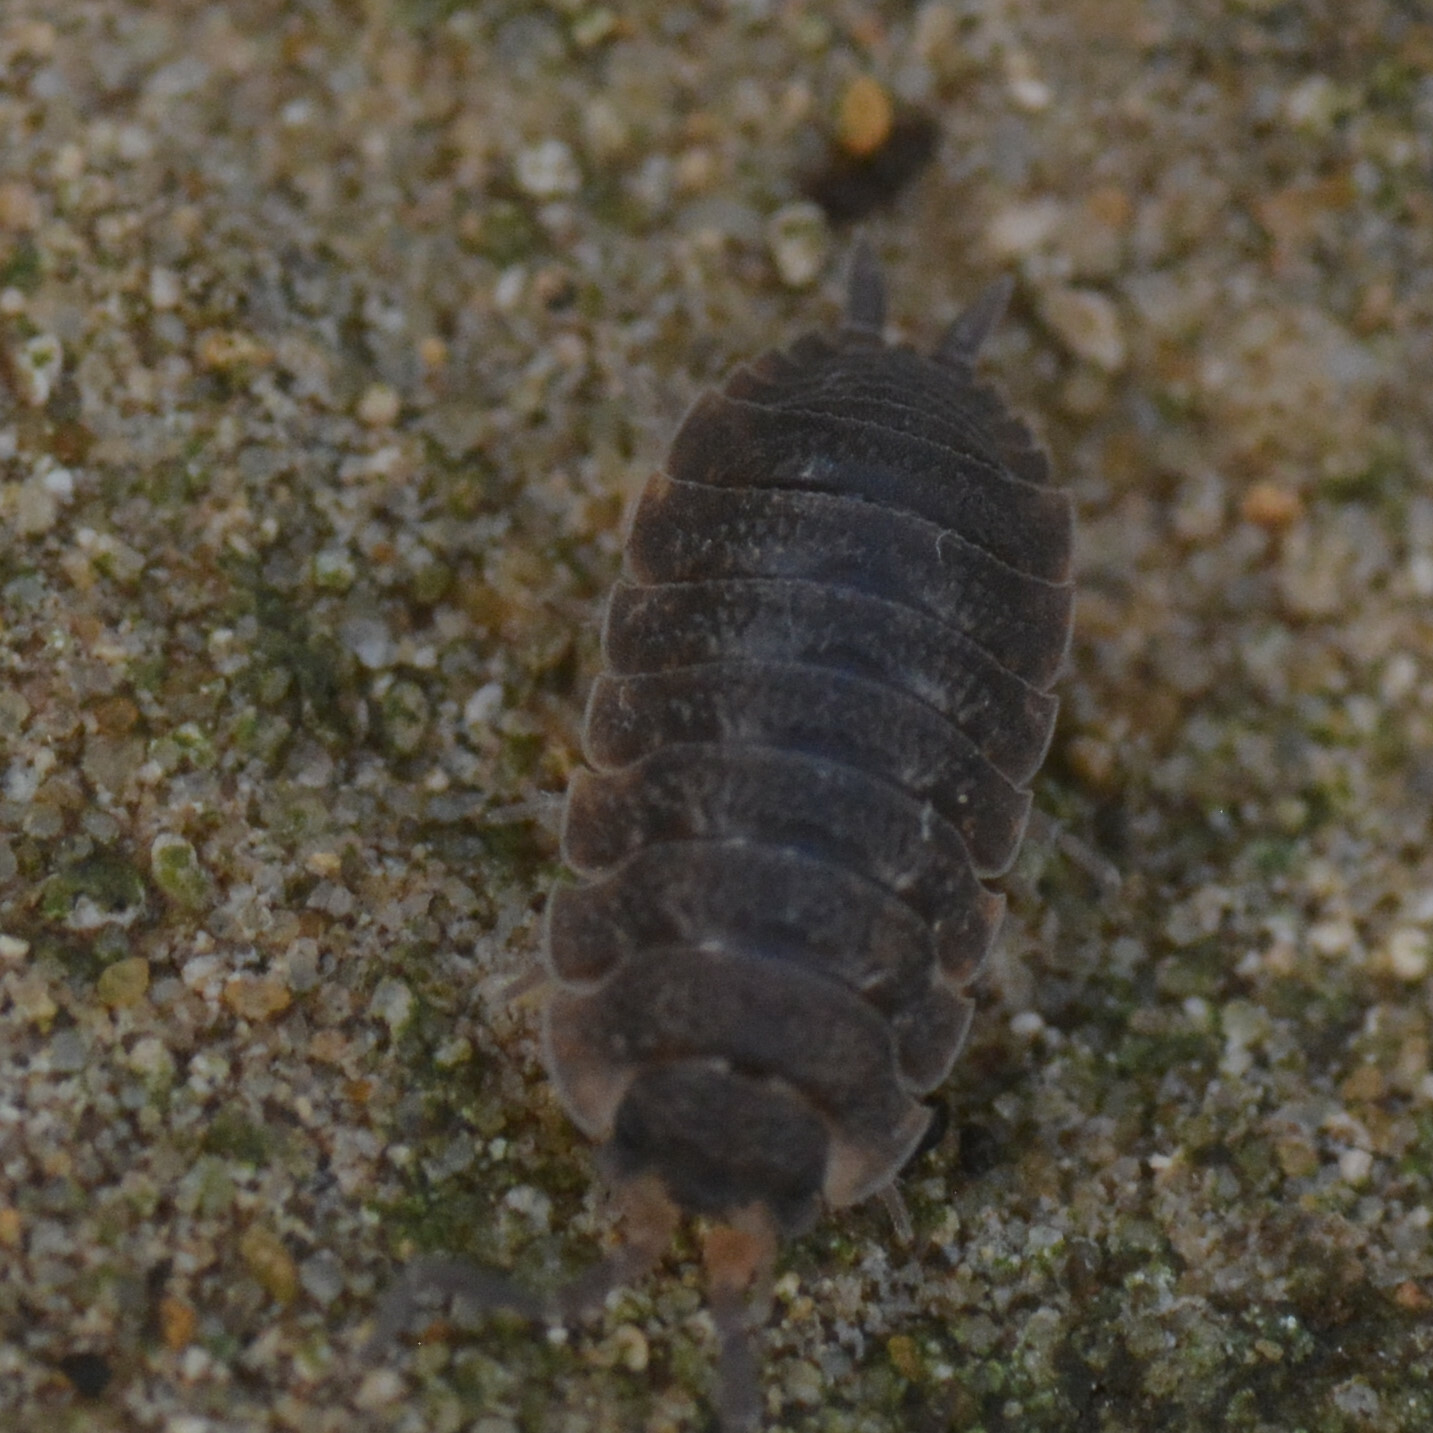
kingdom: Animalia
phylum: Arthropoda
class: Malacostraca
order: Isopoda
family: Porcellionidae
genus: Porcellio
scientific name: Porcellio scaber
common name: Common rough woodlouse
